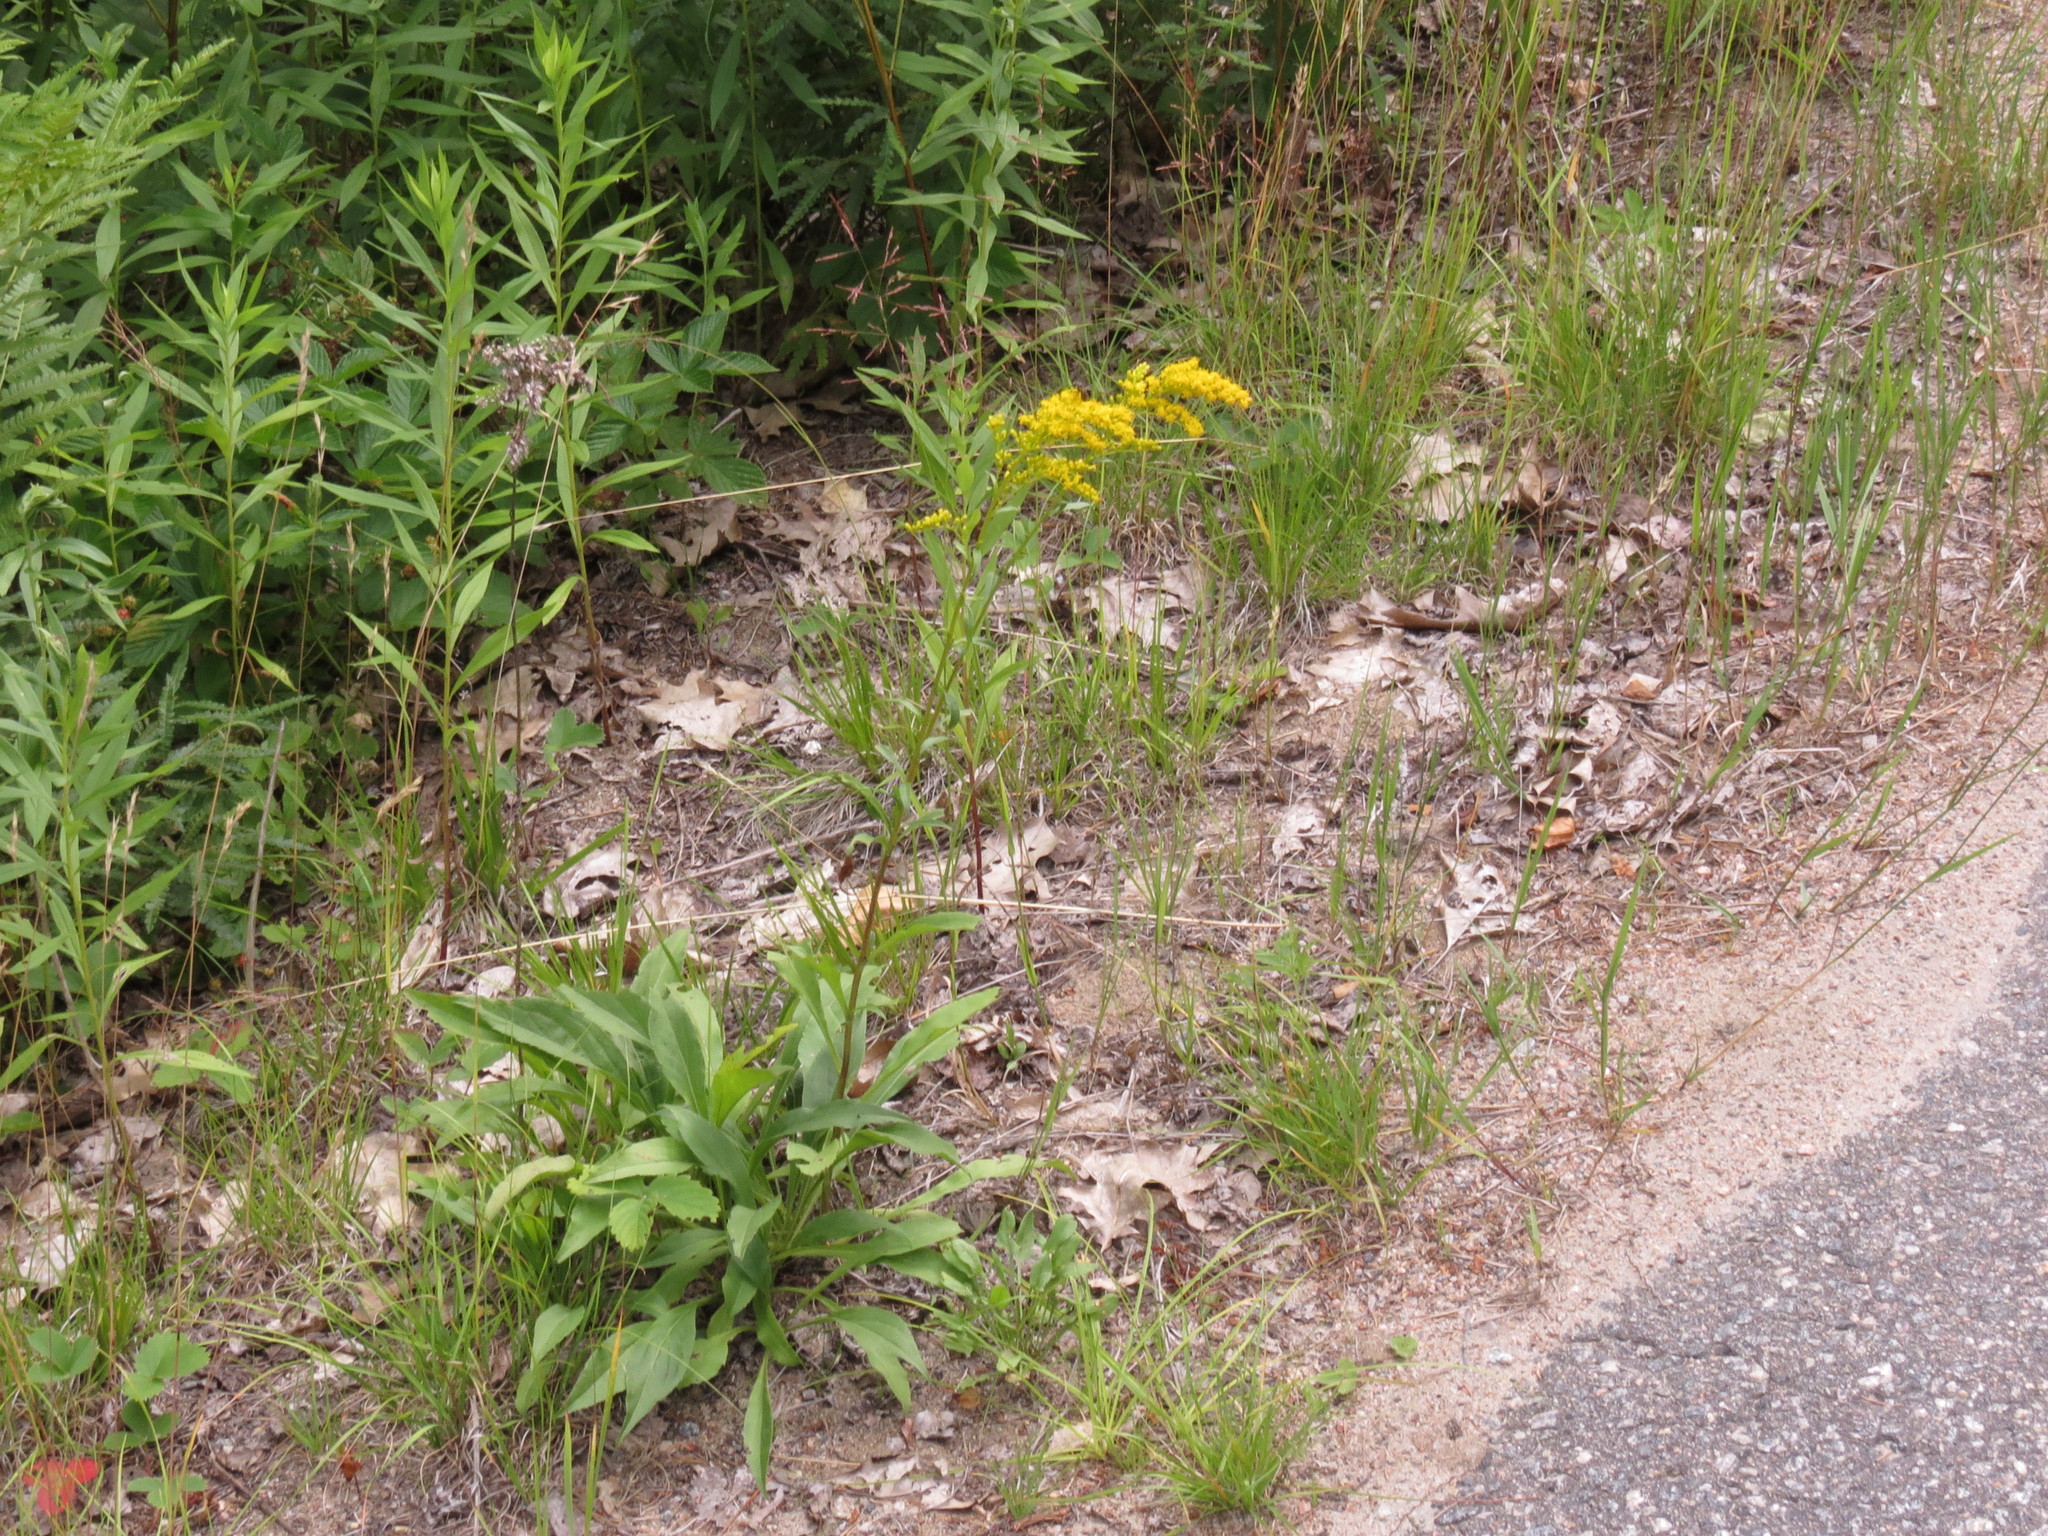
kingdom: Plantae
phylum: Tracheophyta
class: Magnoliopsida
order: Asterales
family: Asteraceae
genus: Solidago
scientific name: Solidago juncea
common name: Early goldenrod
